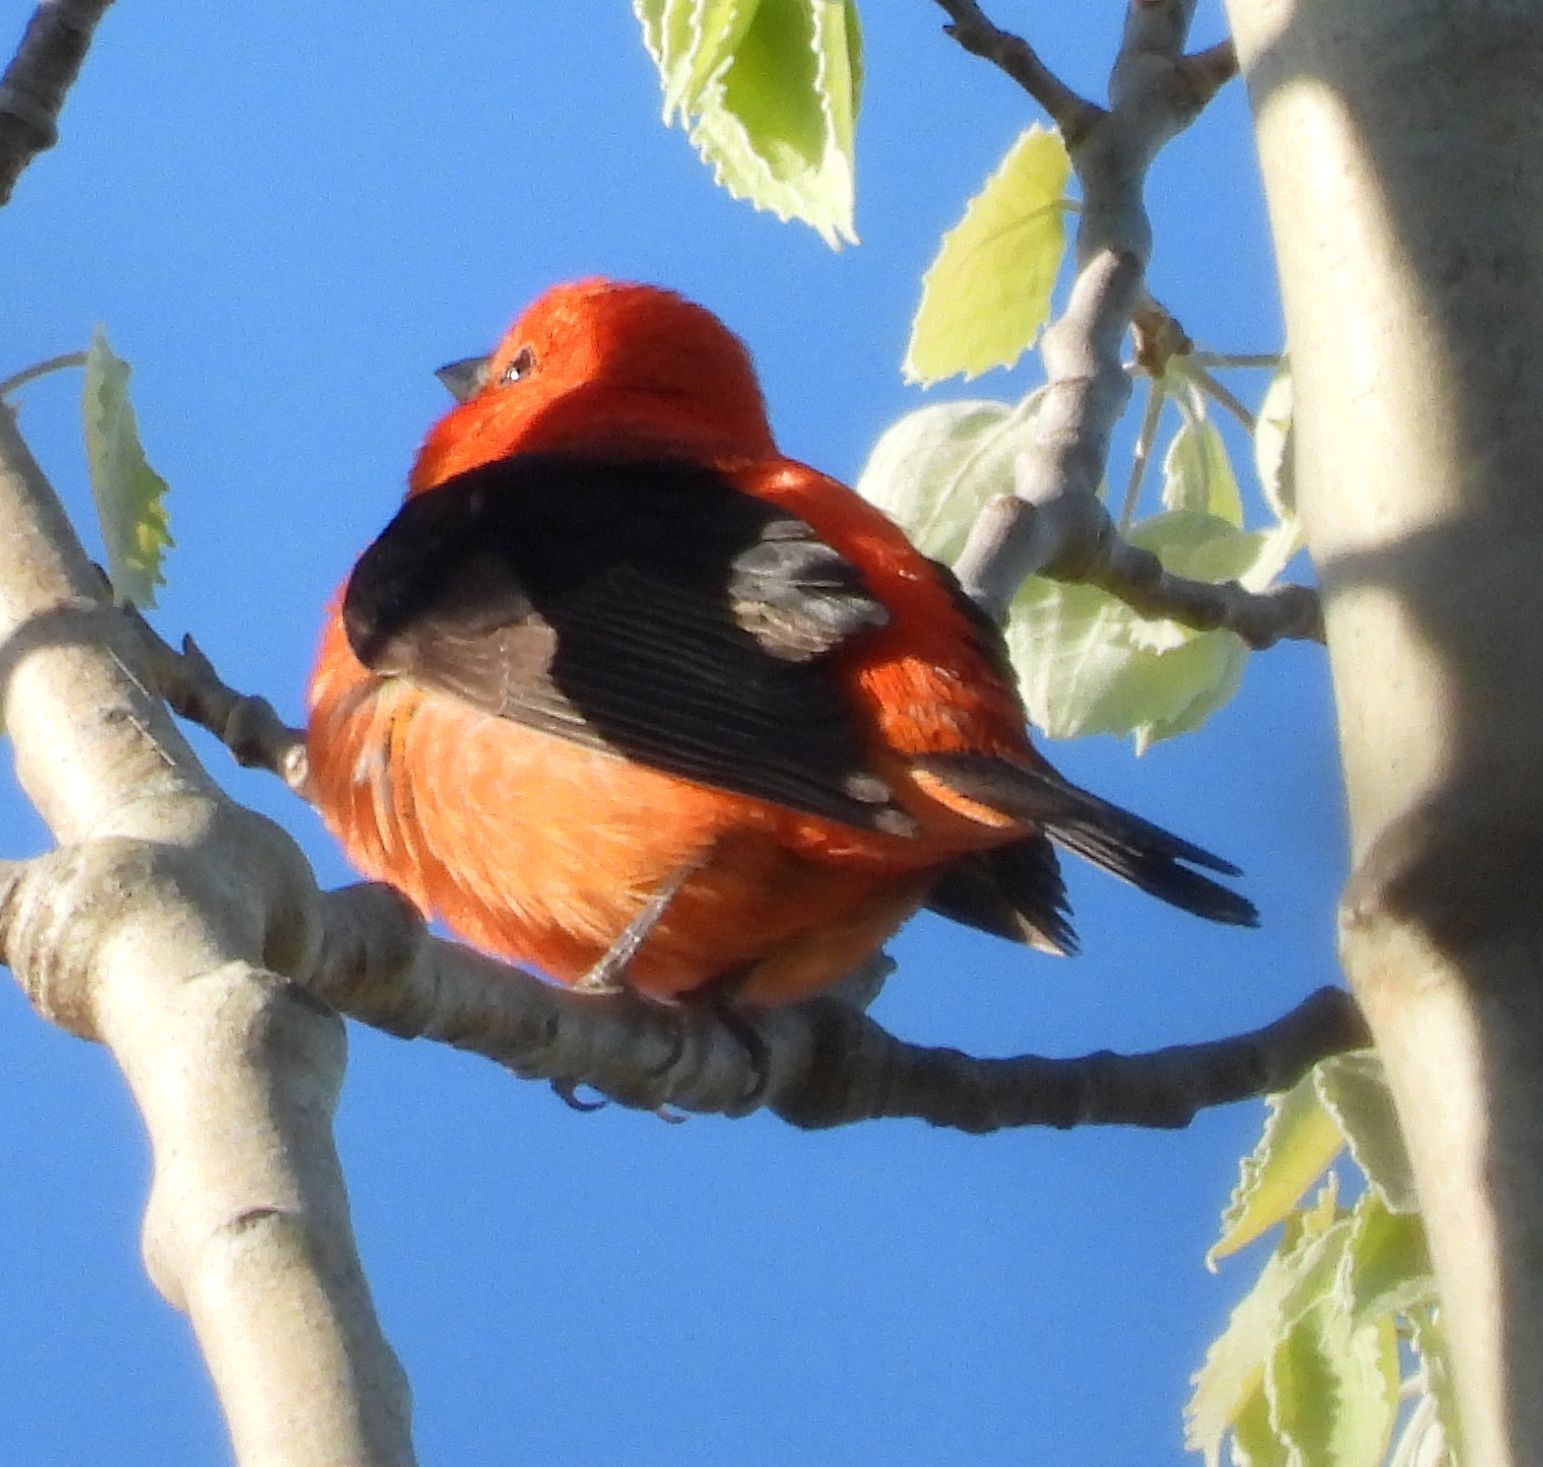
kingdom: Animalia
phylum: Chordata
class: Aves
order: Passeriformes
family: Cardinalidae
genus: Piranga
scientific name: Piranga olivacea
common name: Scarlet tanager
